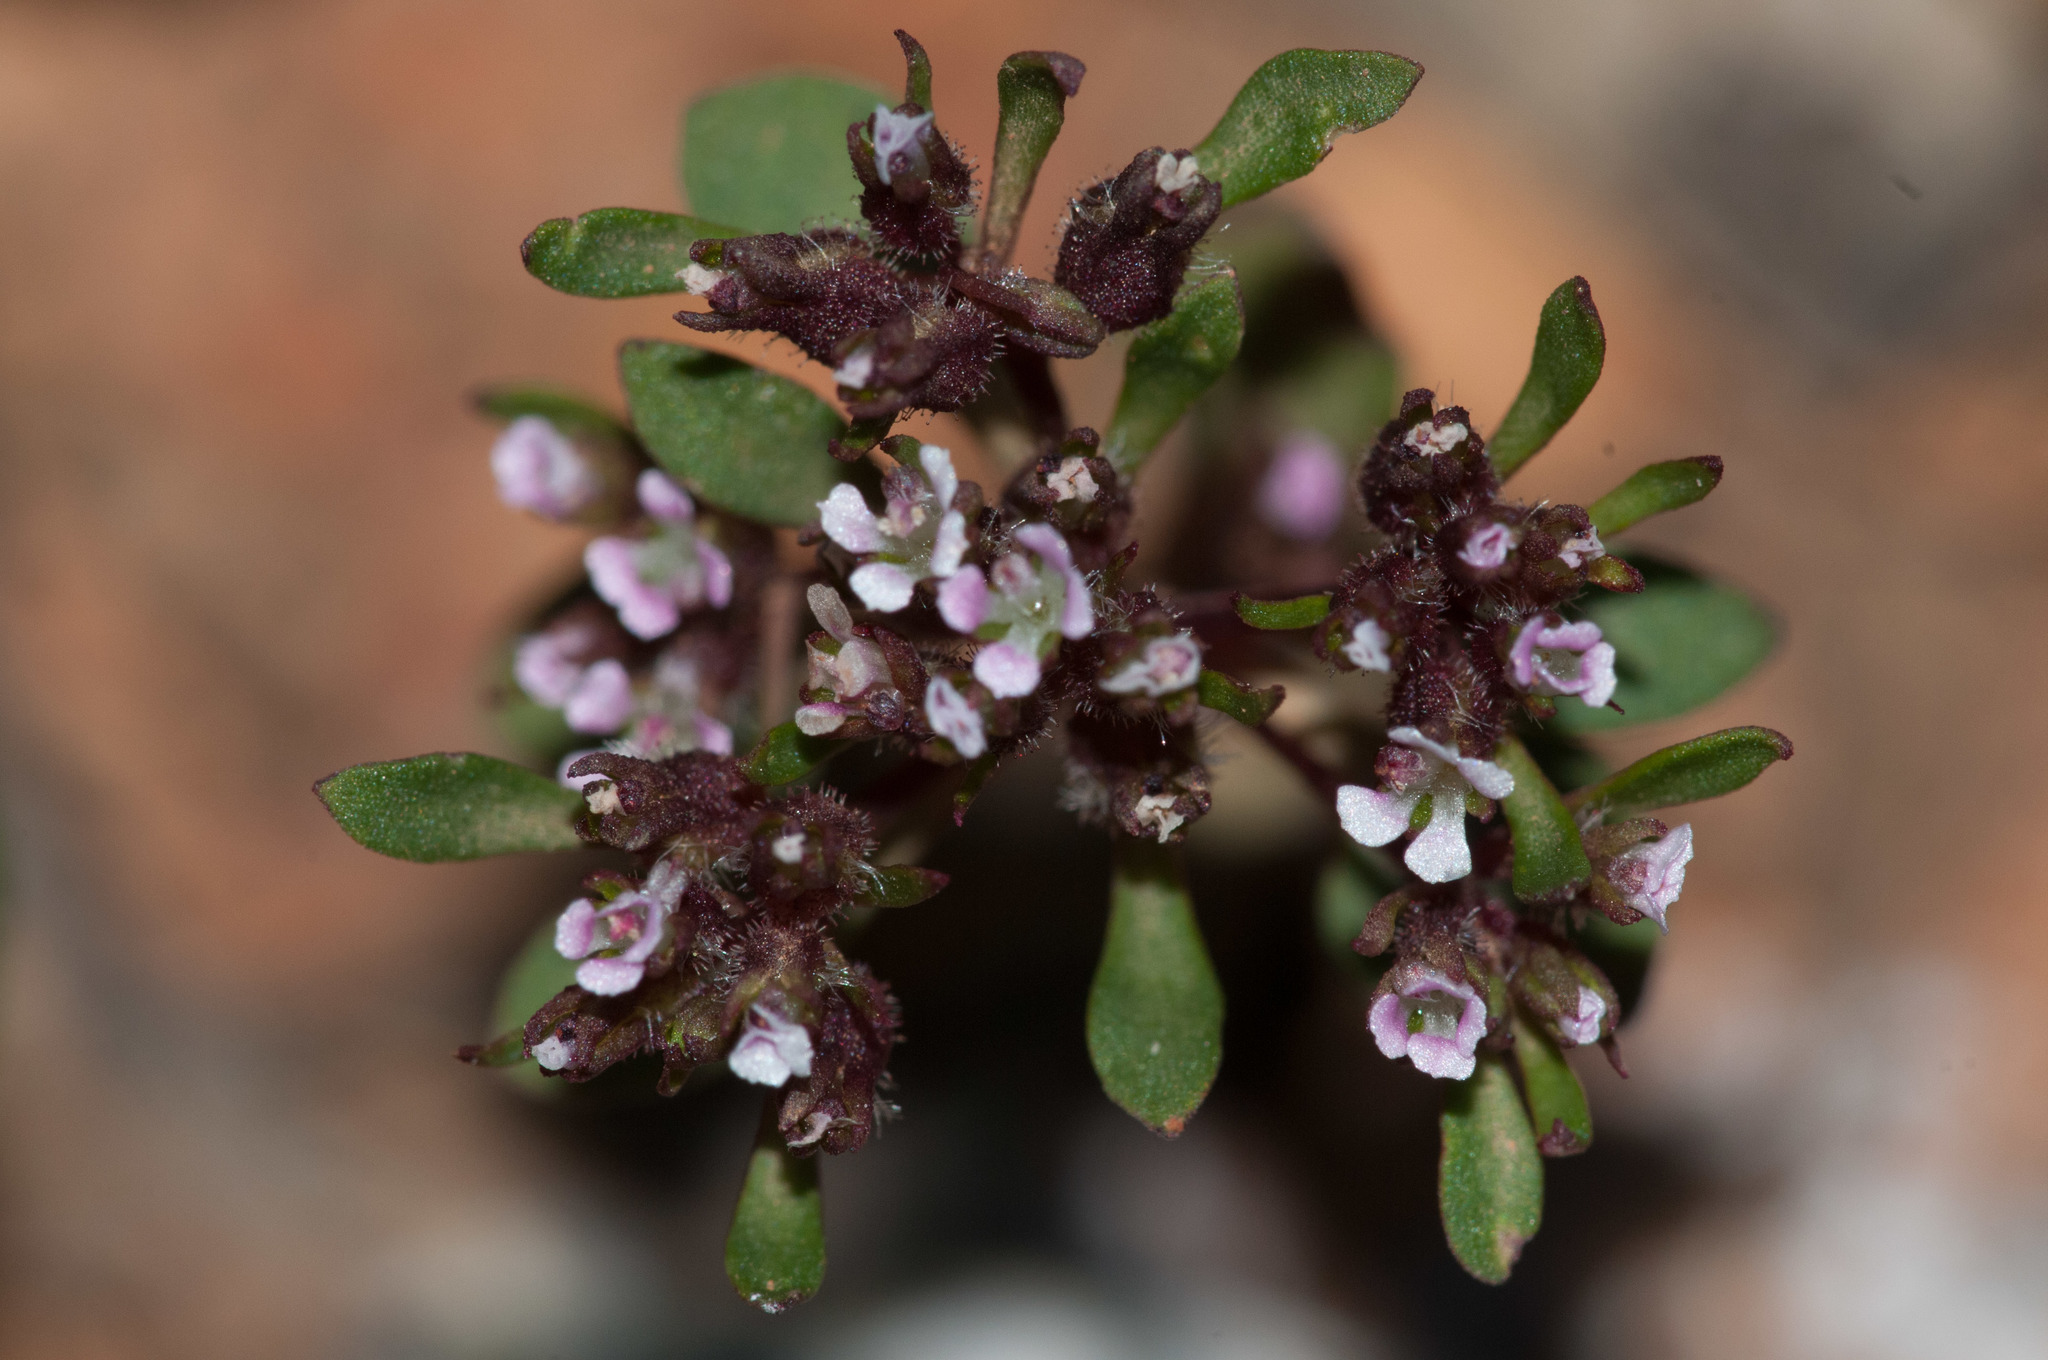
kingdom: Plantae
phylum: Tracheophyta
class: Magnoliopsida
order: Asterales
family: Stylidiaceae
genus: Levenhookia
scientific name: Levenhookia pusilla
